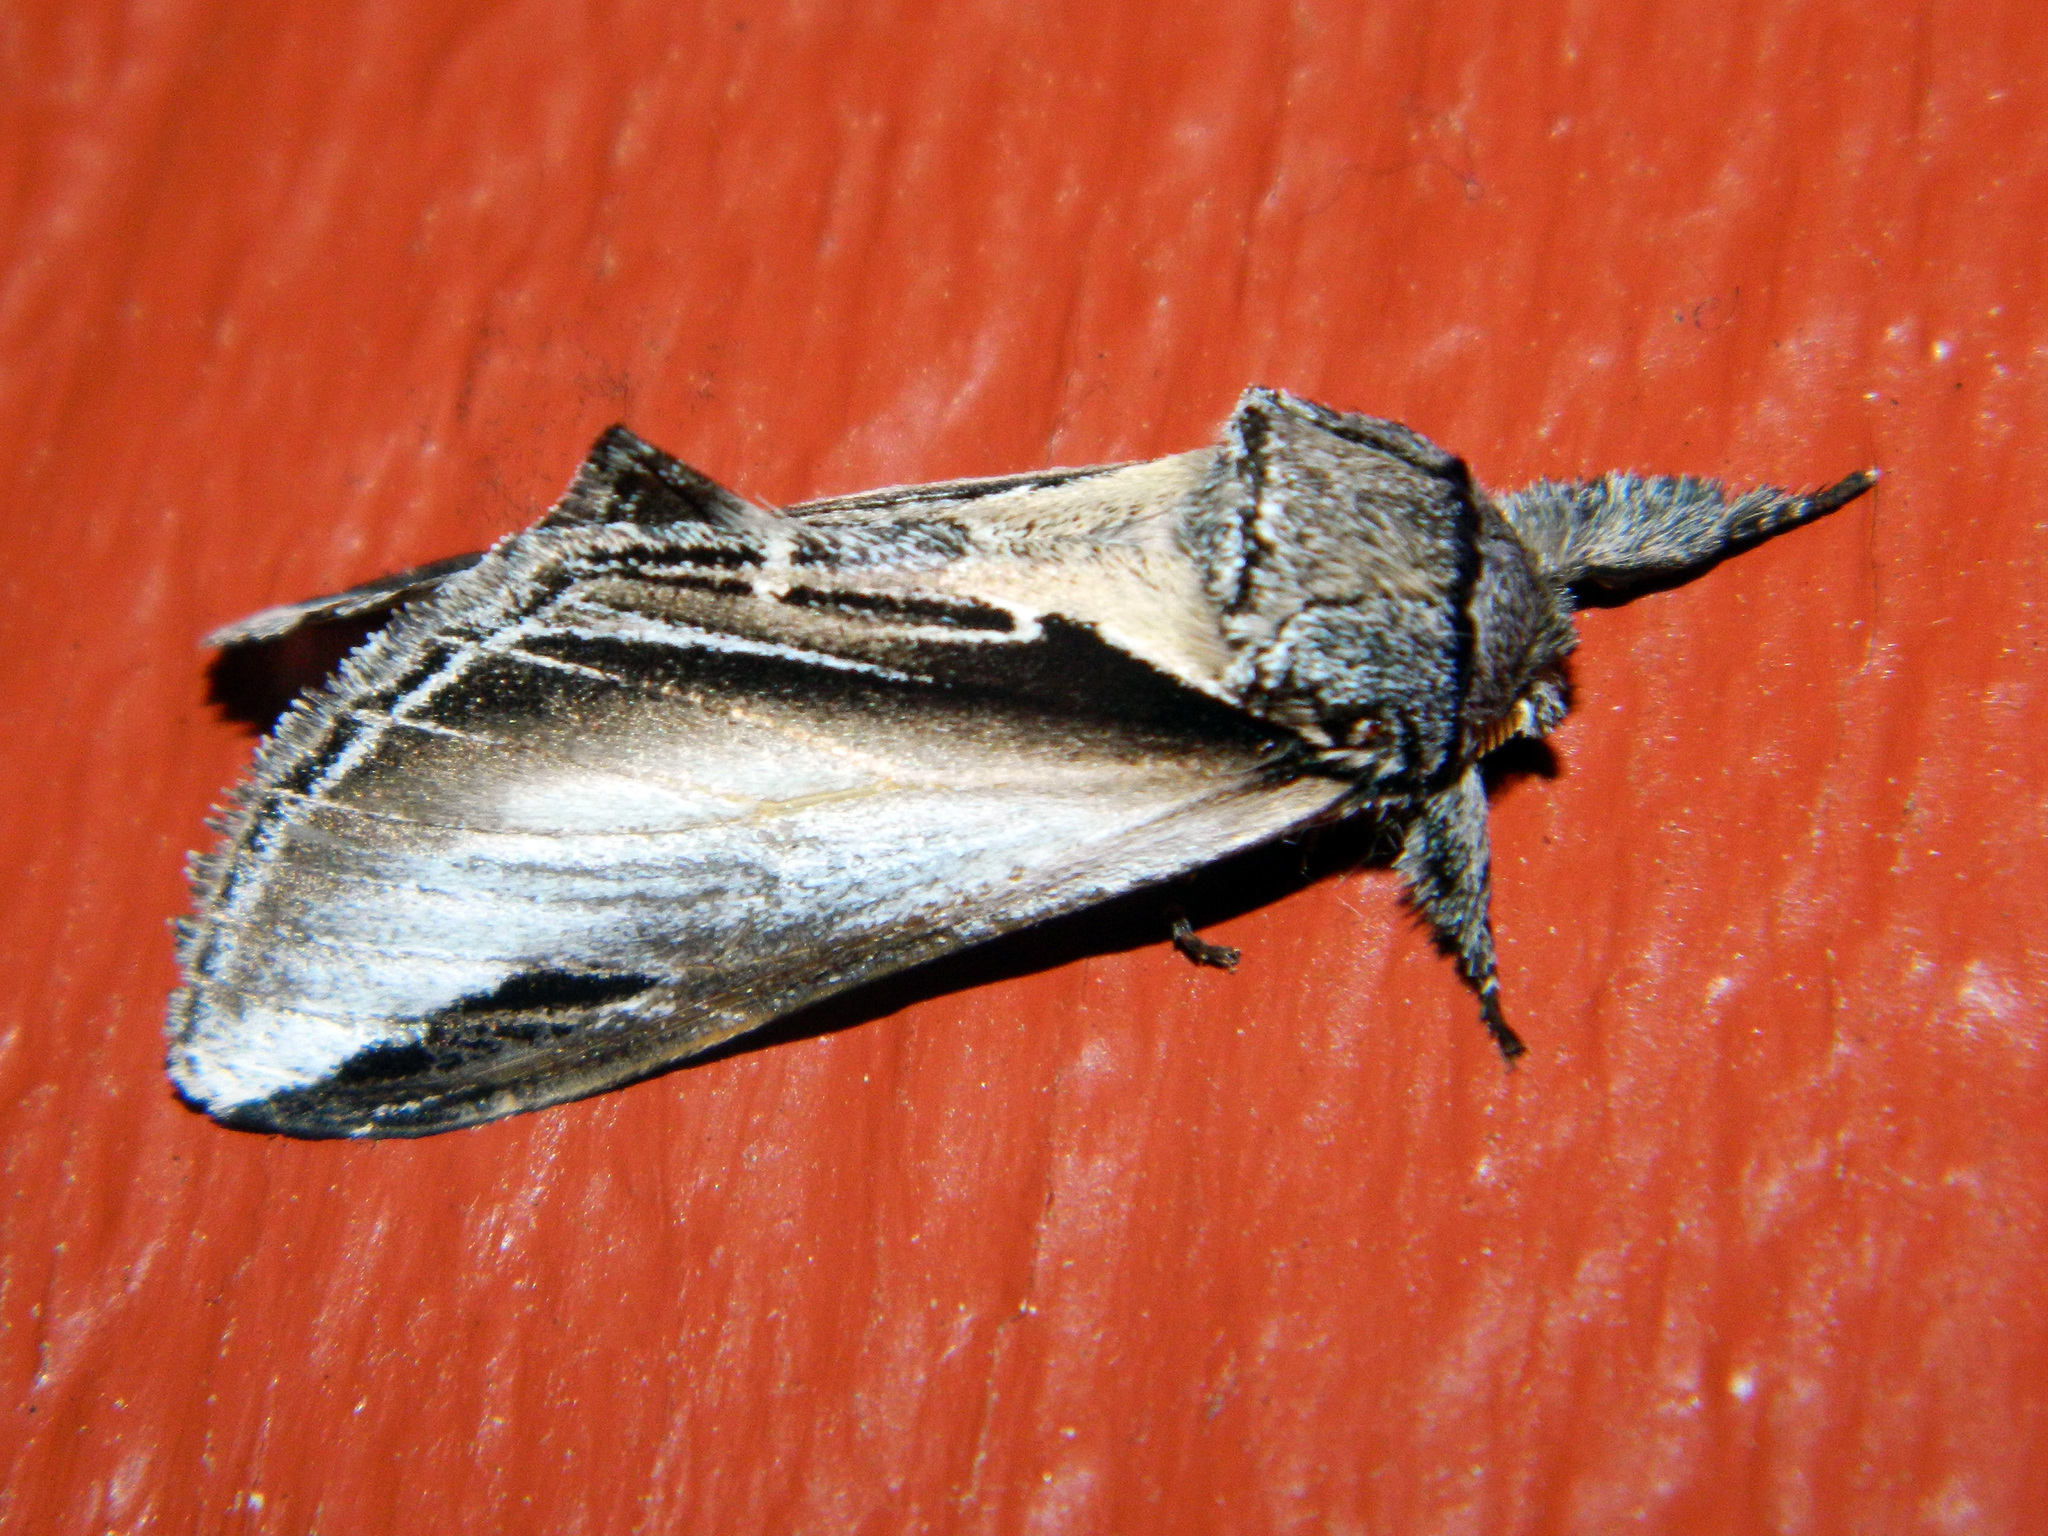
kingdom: Animalia
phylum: Arthropoda
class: Insecta
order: Lepidoptera
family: Notodontidae
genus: Pheosia
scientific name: Pheosia rimosa
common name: Black-rimmed prominent
